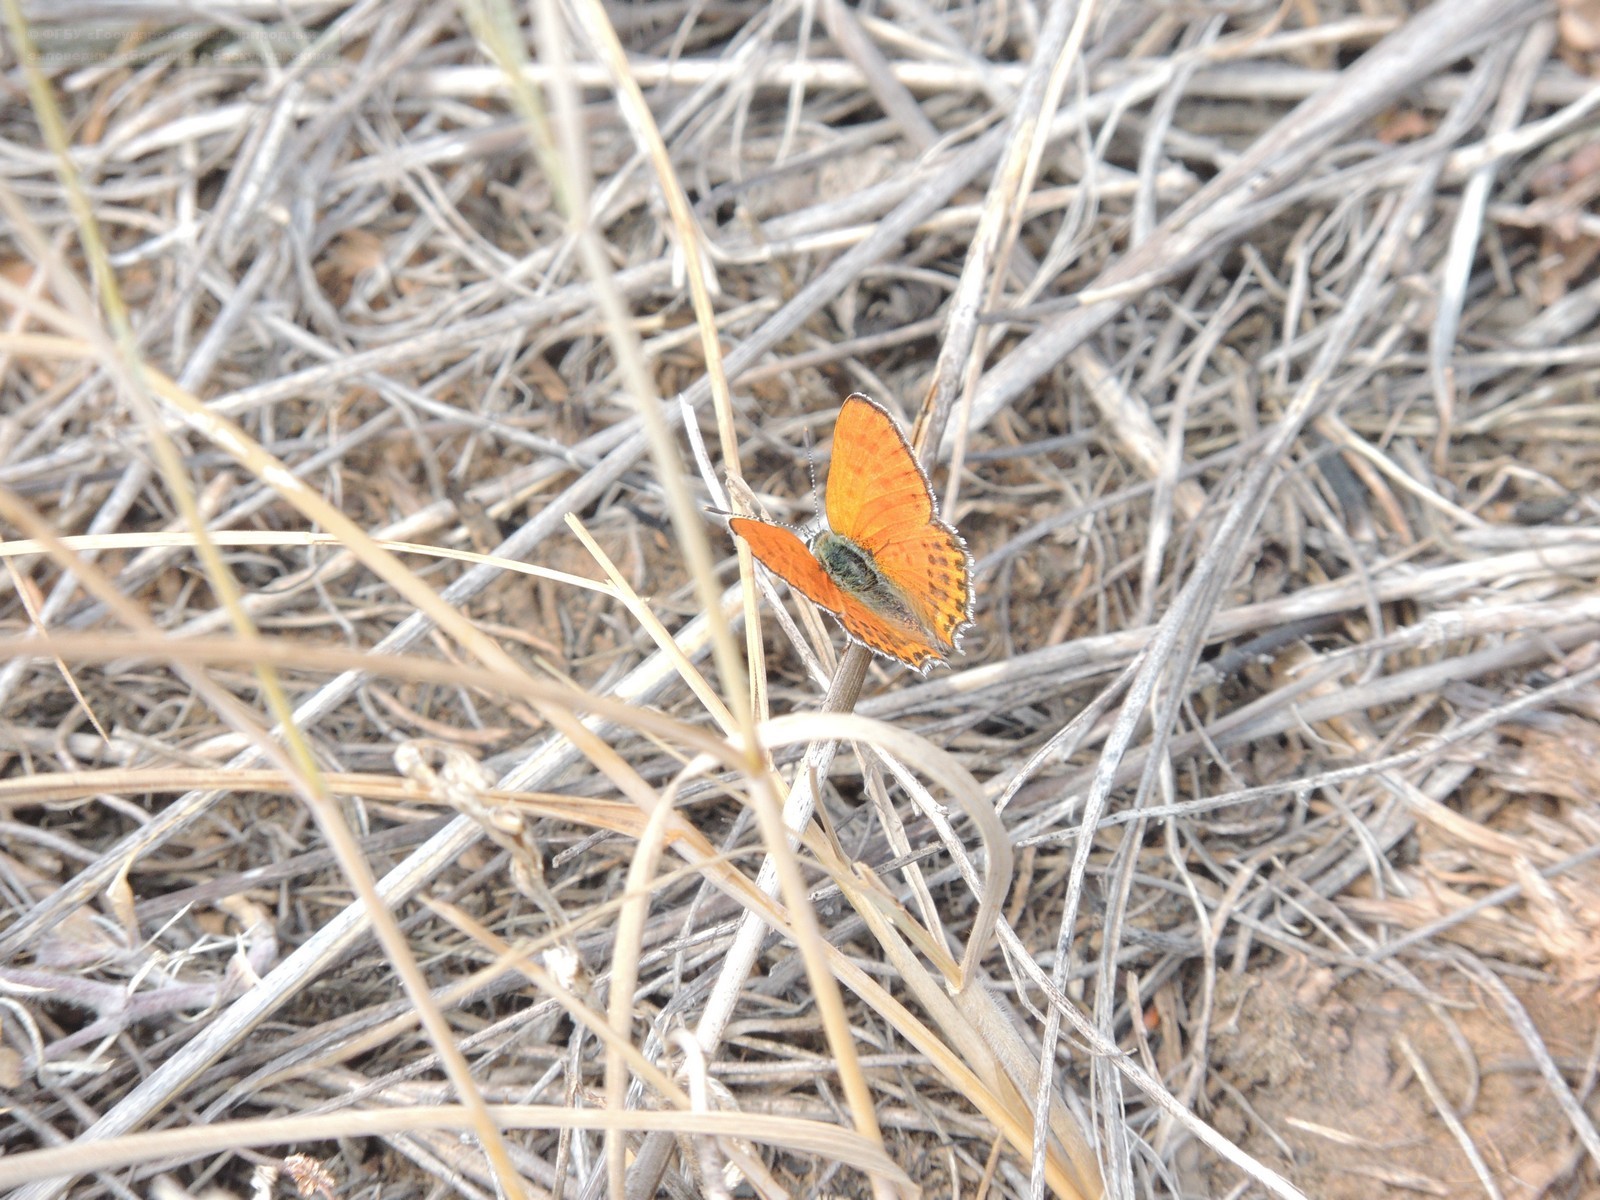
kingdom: Animalia
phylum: Arthropoda
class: Insecta
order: Lepidoptera
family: Lycaenidae
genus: Thersamonia
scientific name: Thersamonia thersamon
